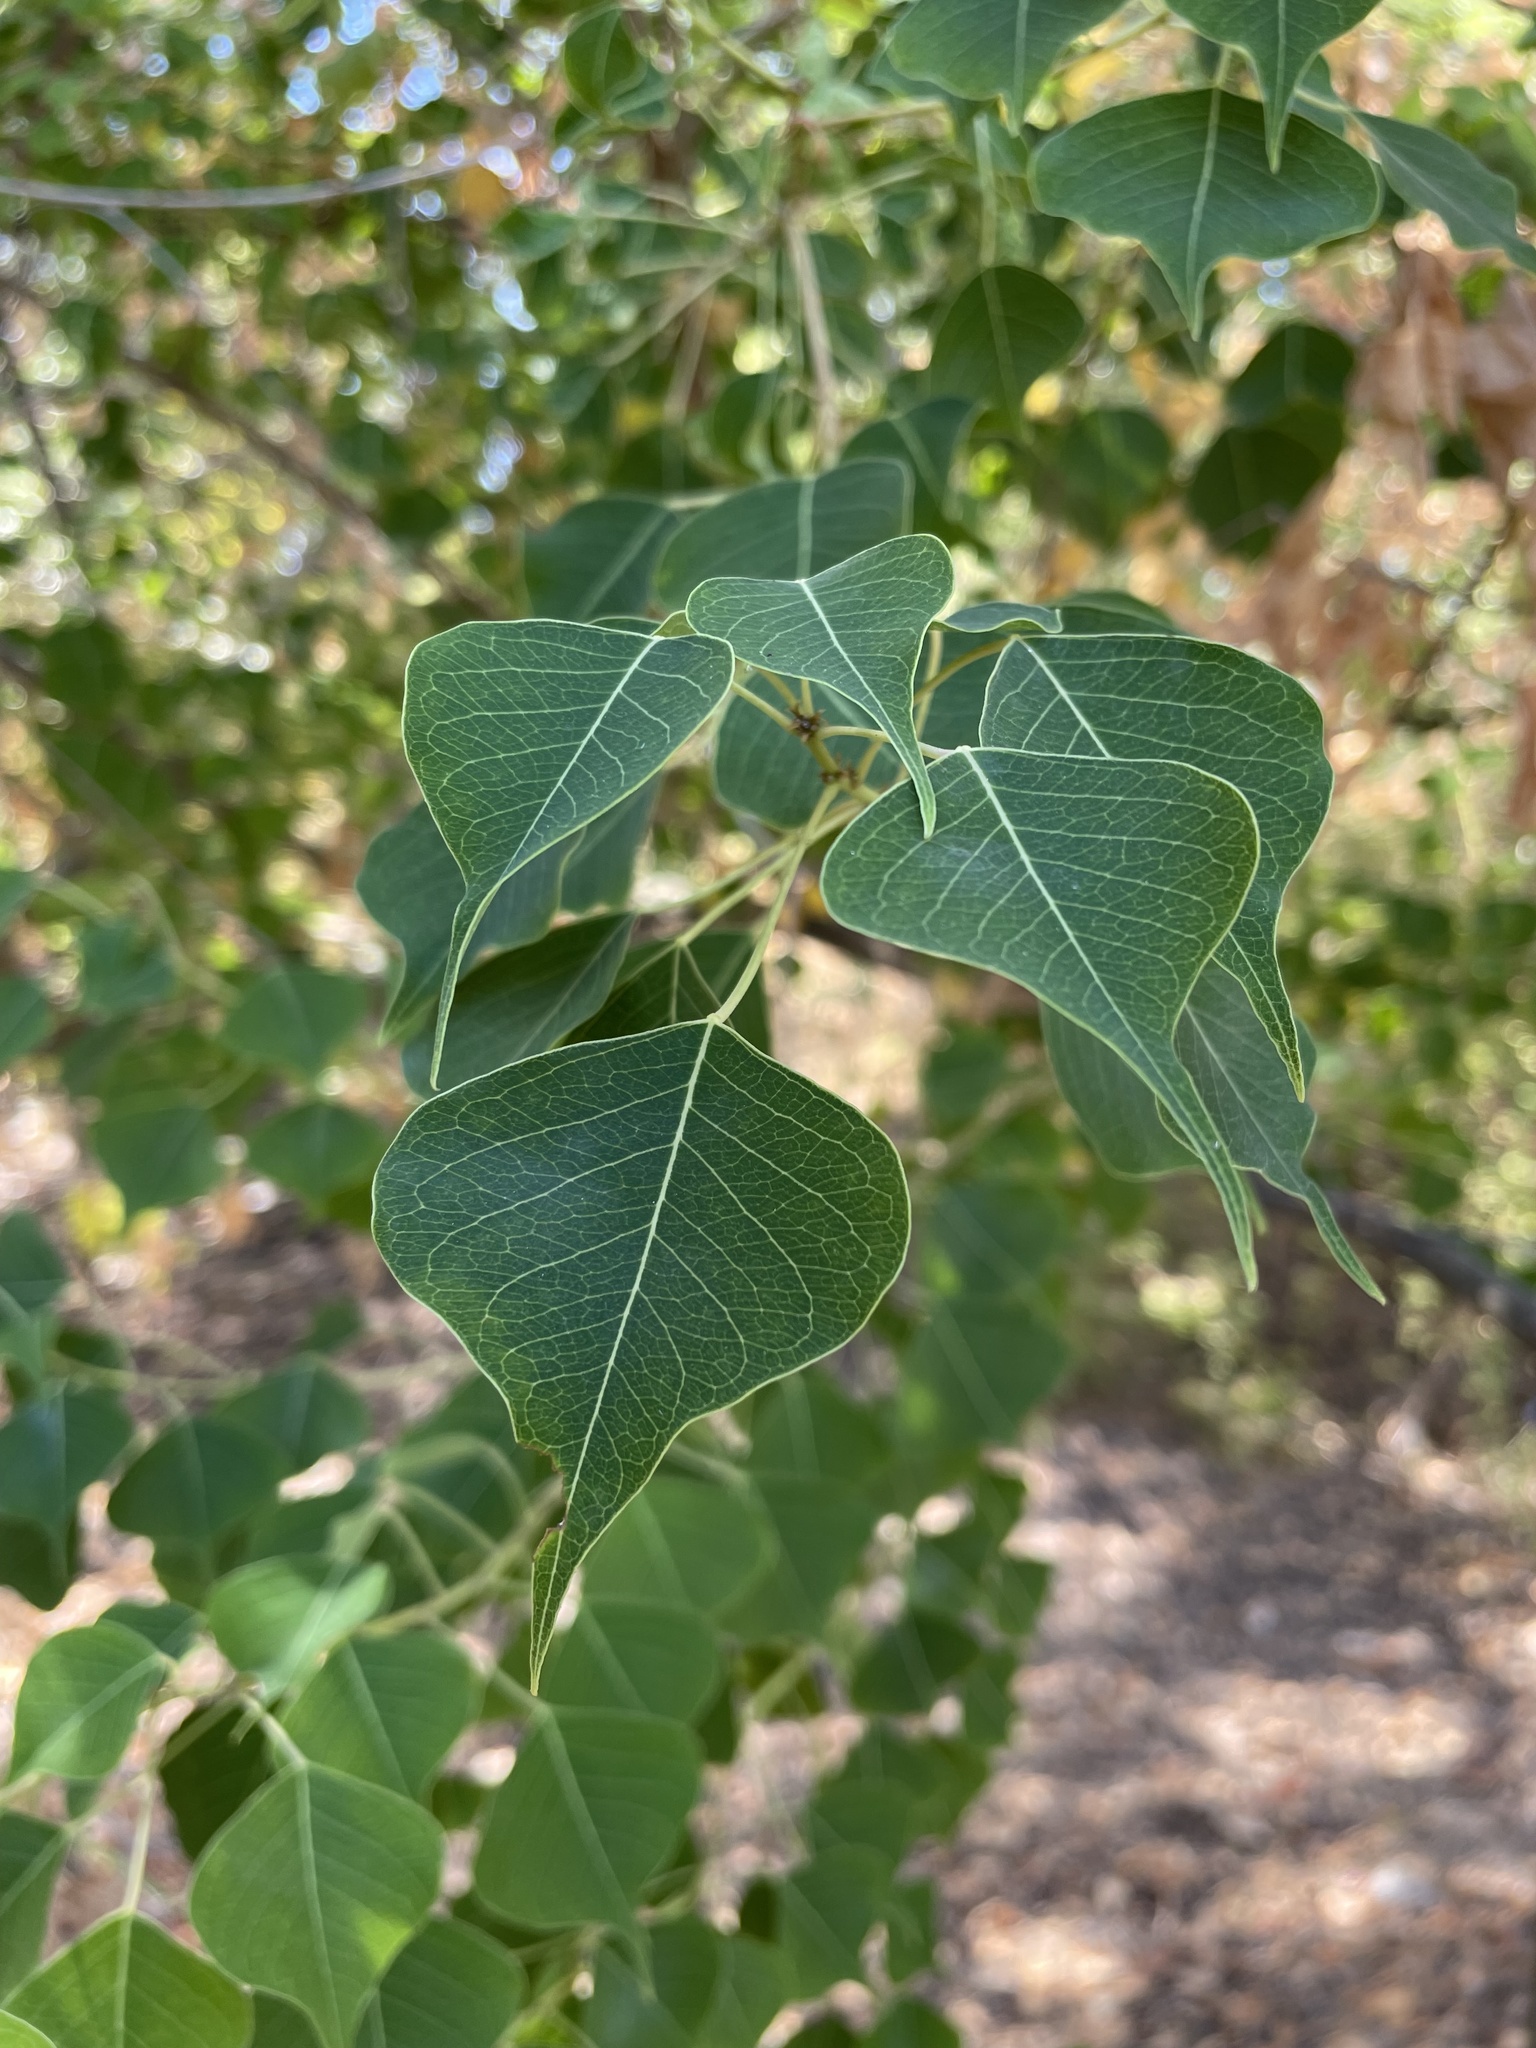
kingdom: Plantae
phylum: Tracheophyta
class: Magnoliopsida
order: Malpighiales
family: Euphorbiaceae
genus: Triadica
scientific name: Triadica sebifera
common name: Chinese tallow
